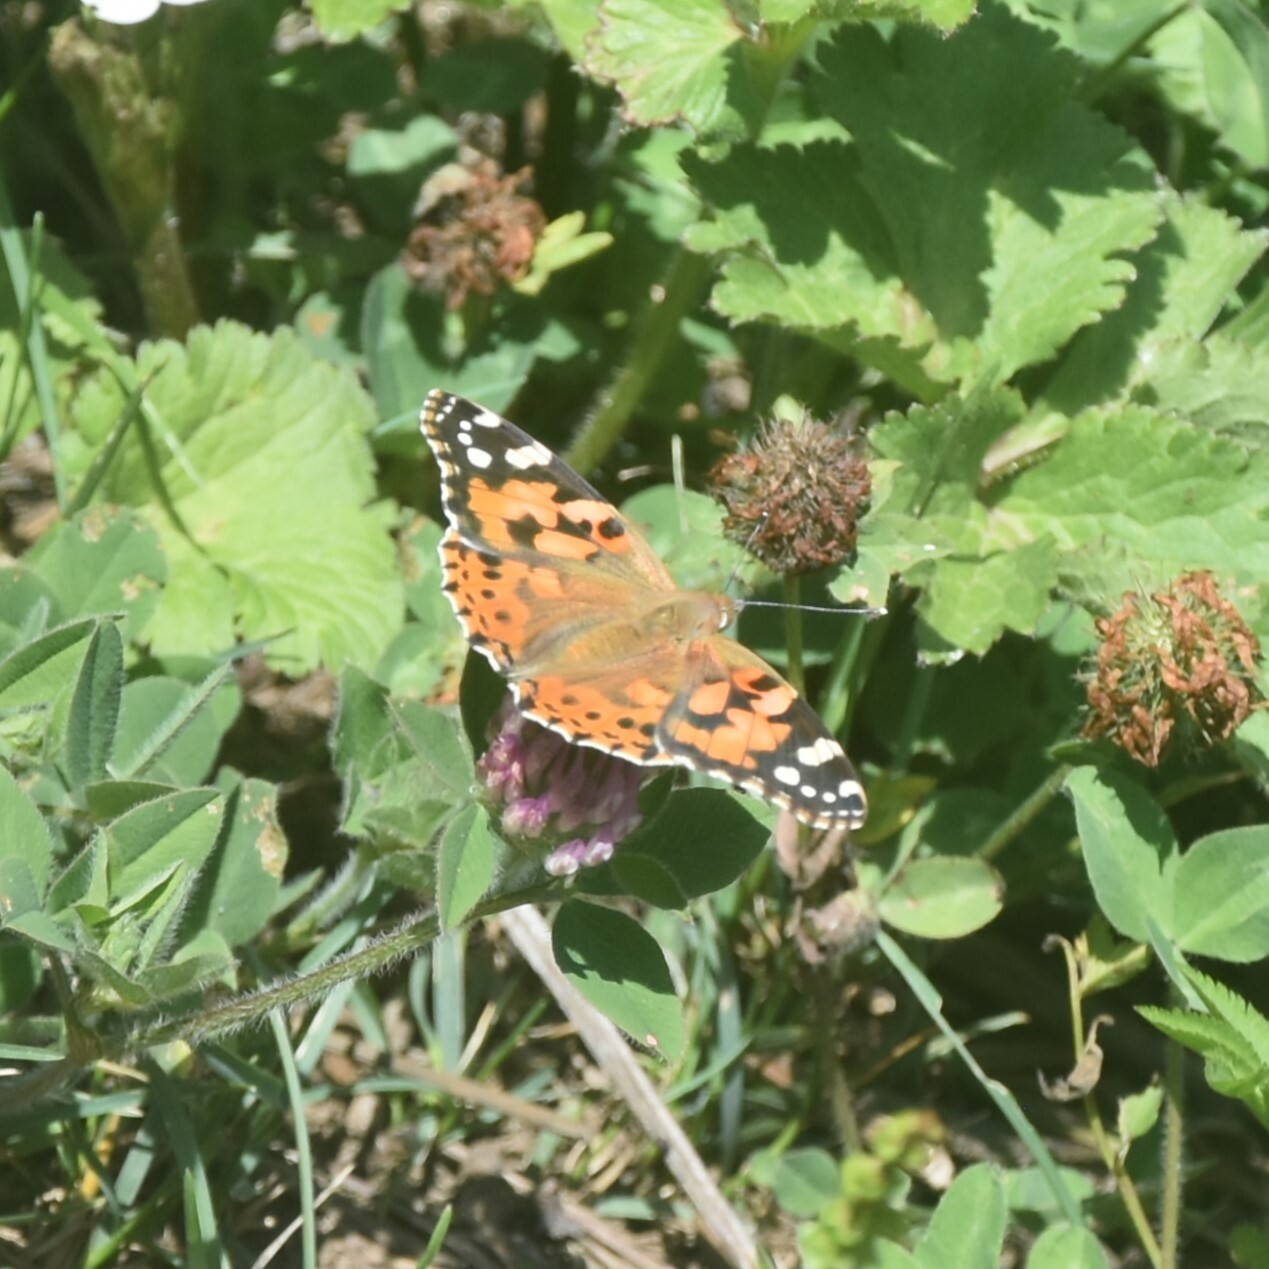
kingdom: Animalia
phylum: Arthropoda
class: Insecta
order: Lepidoptera
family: Nymphalidae
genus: Vanessa
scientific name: Vanessa cardui
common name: Painted lady
